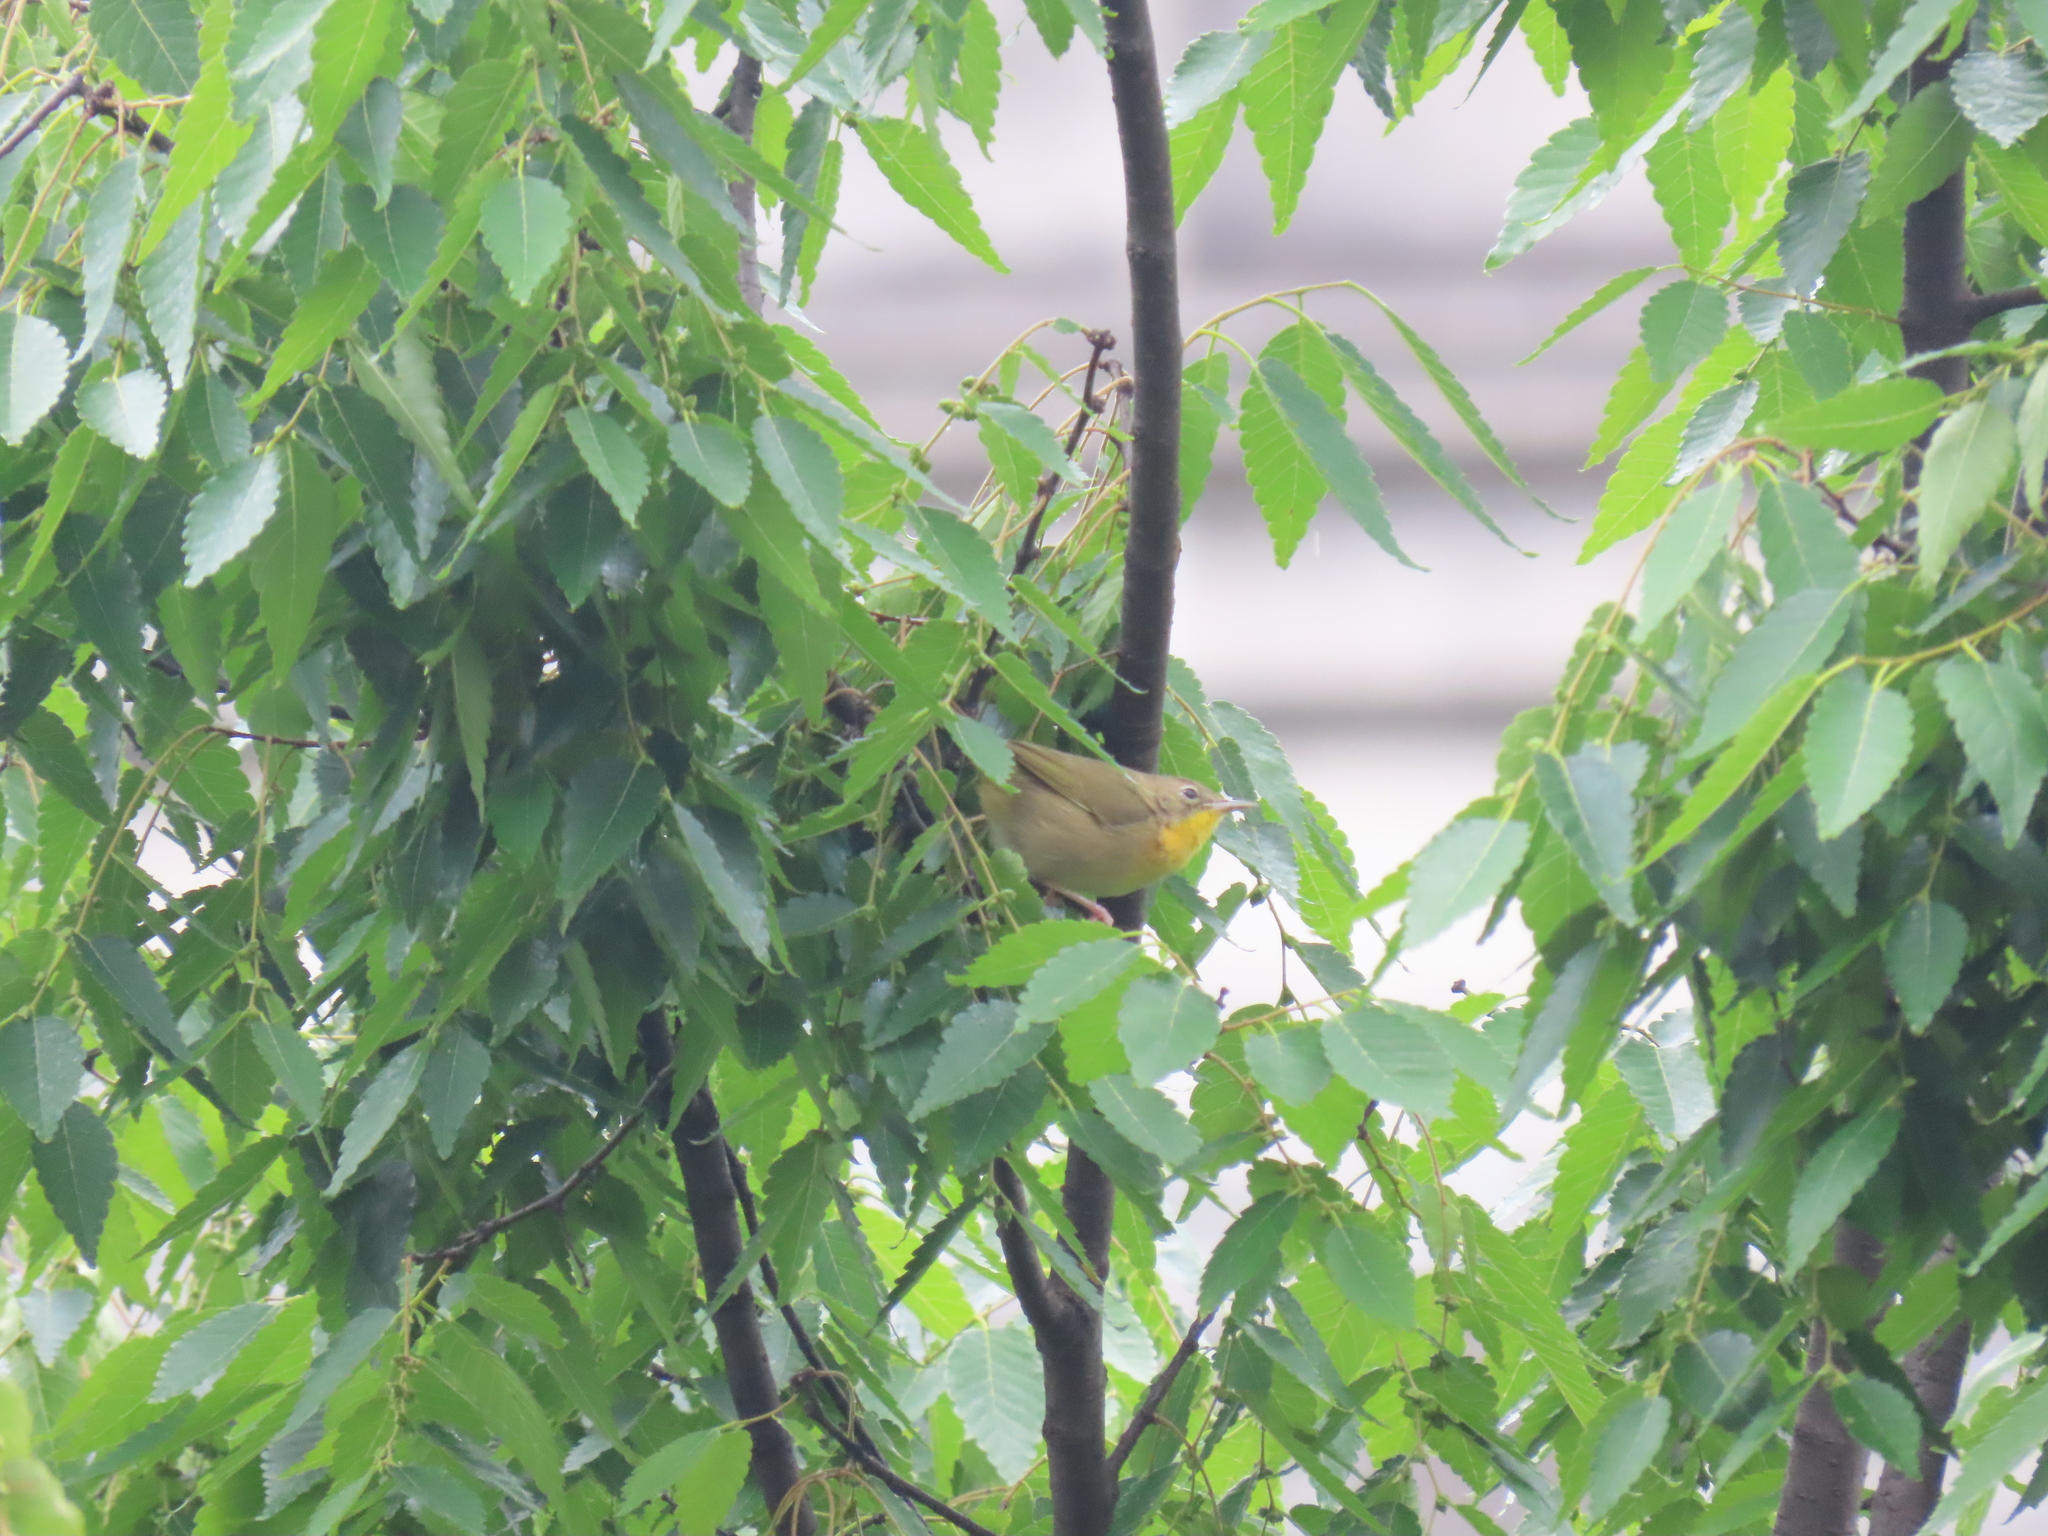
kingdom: Animalia
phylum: Chordata
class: Aves
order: Passeriformes
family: Parulidae
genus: Geothlypis
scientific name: Geothlypis trichas
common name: Common yellowthroat
